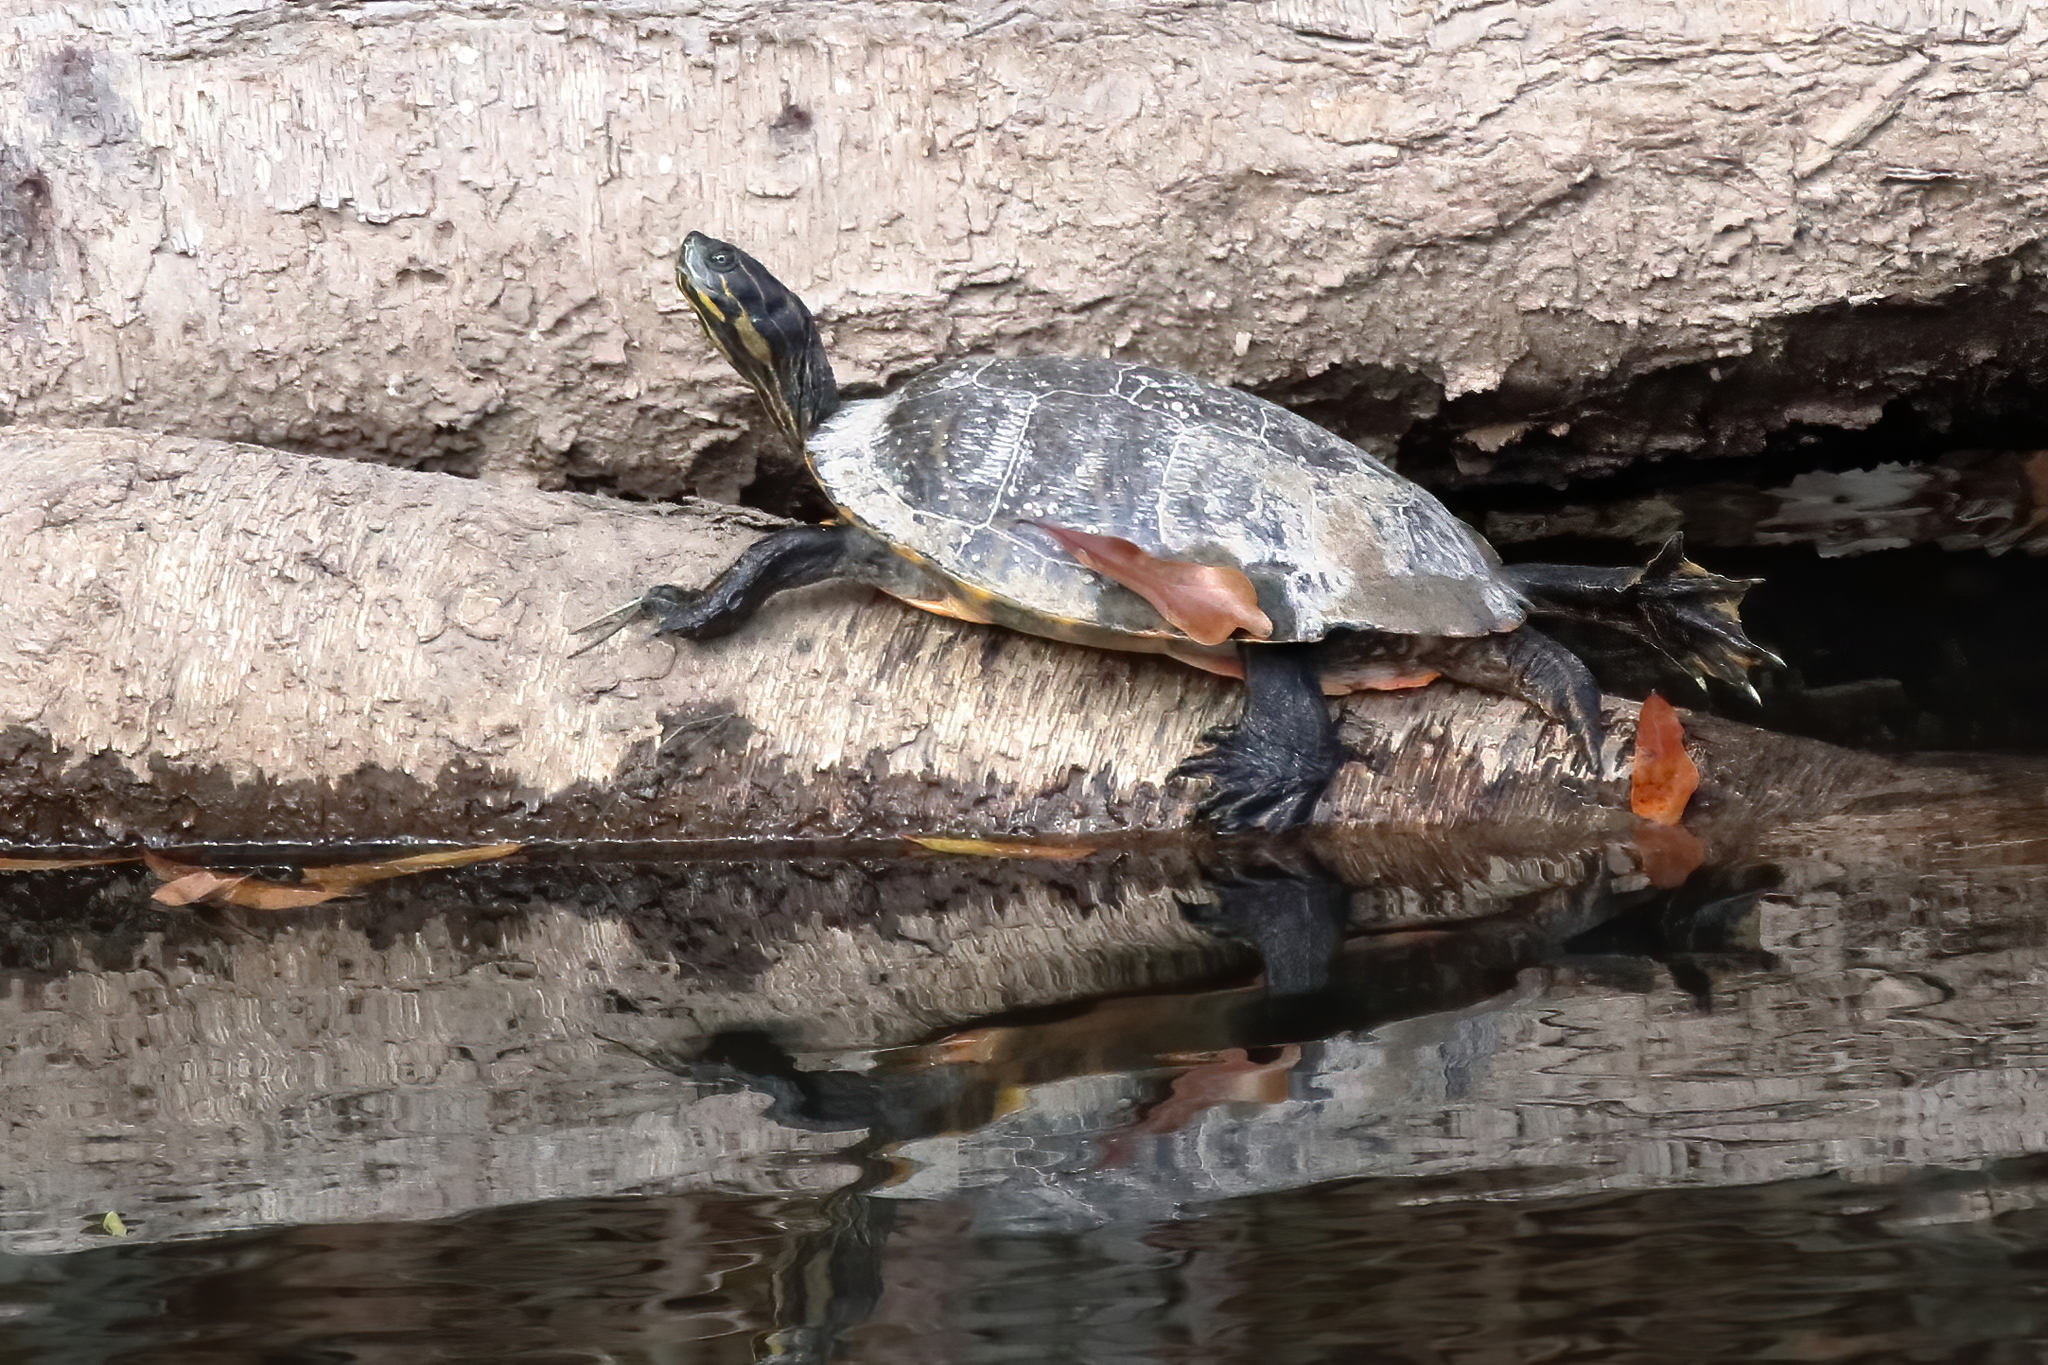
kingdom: Animalia
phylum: Chordata
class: Testudines
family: Emydidae
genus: Pseudemys
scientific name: Pseudemys concinna
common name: Eastern river cooter
